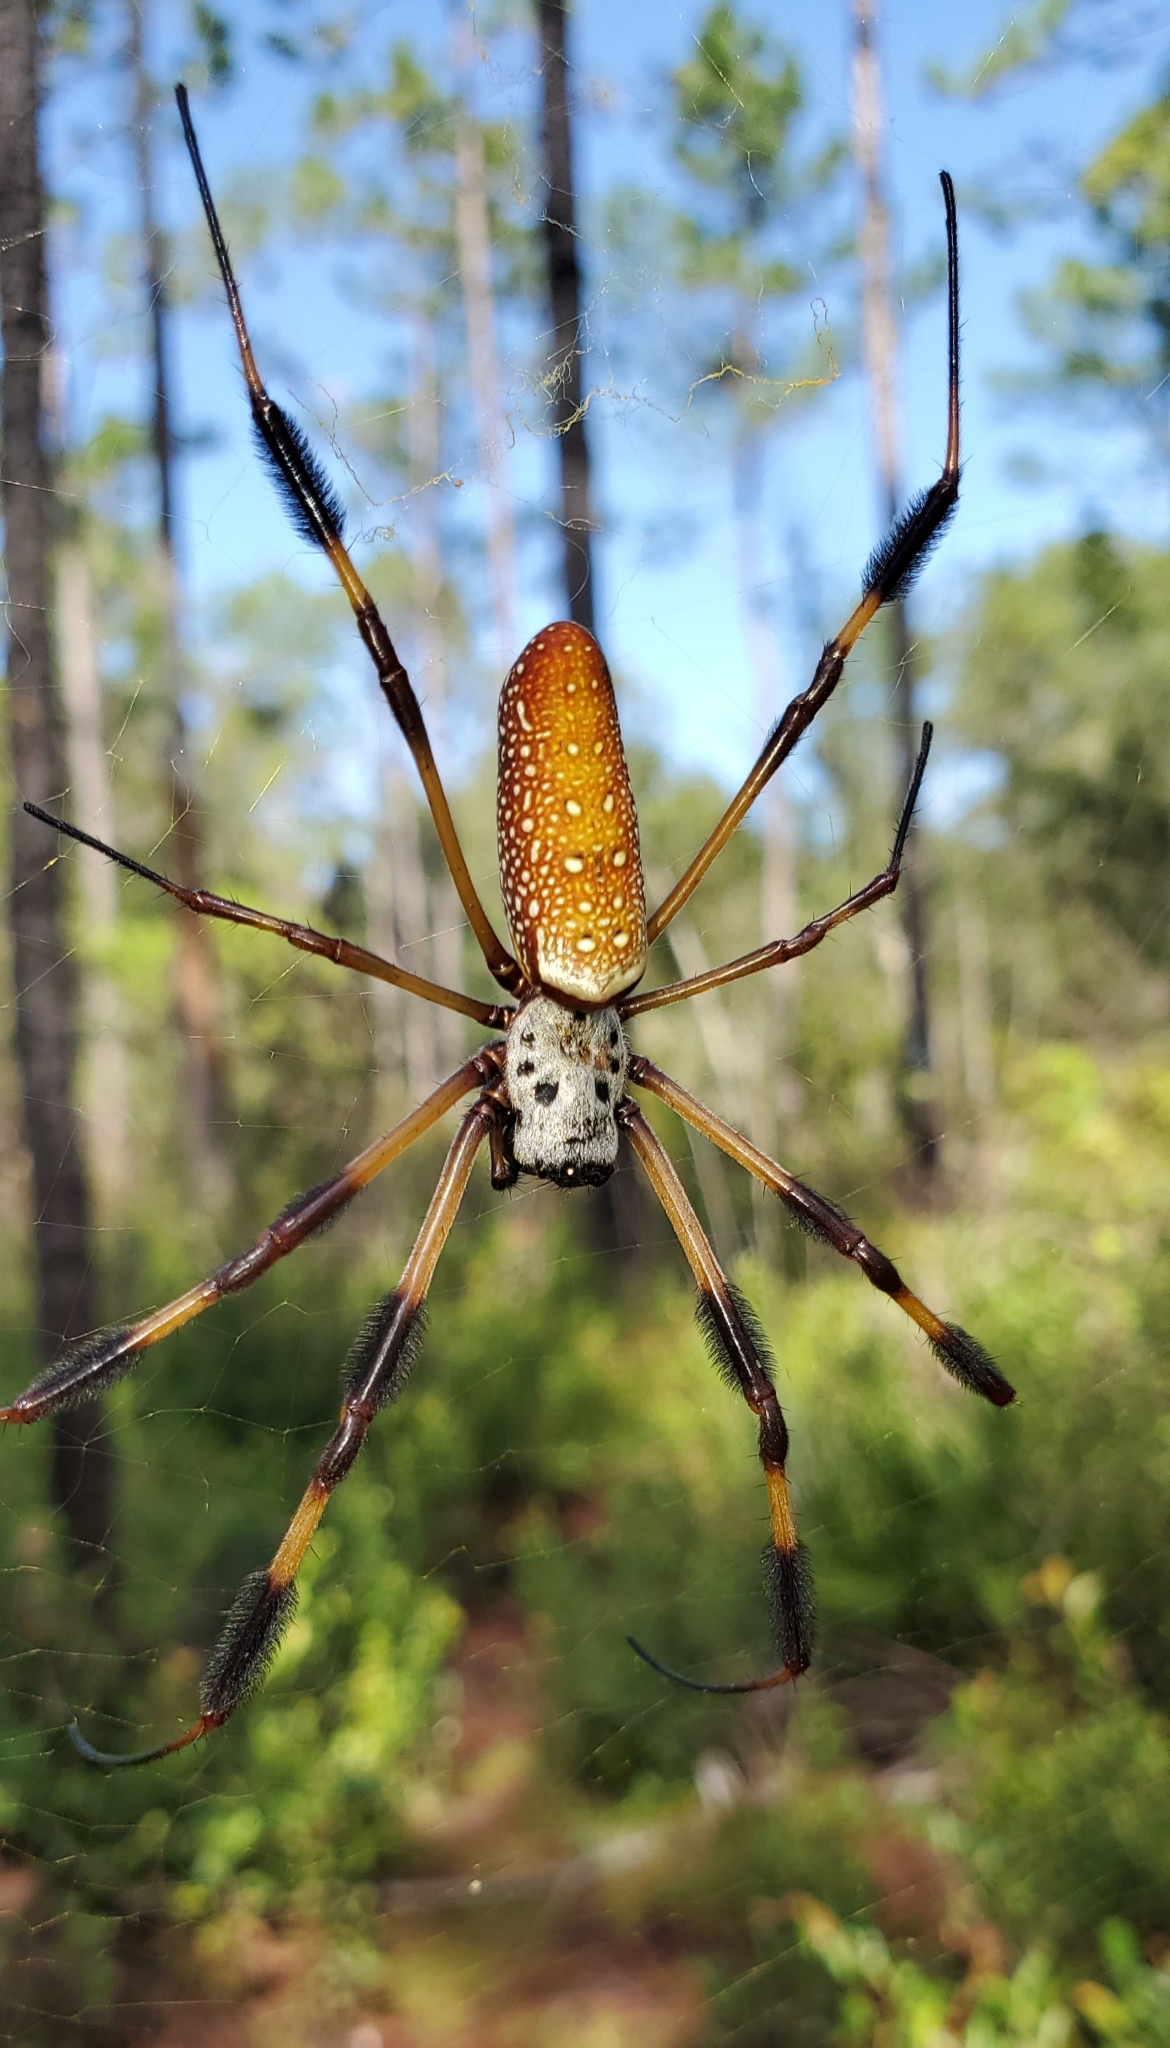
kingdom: Animalia
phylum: Arthropoda
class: Arachnida
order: Araneae
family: Araneidae
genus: Trichonephila
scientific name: Trichonephila clavipes
